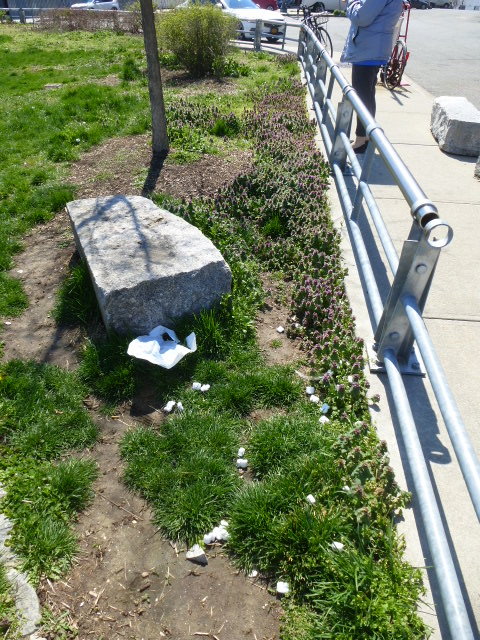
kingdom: Plantae
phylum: Tracheophyta
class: Magnoliopsida
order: Lamiales
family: Lamiaceae
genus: Lamium
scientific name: Lamium purpureum
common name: Red dead-nettle
